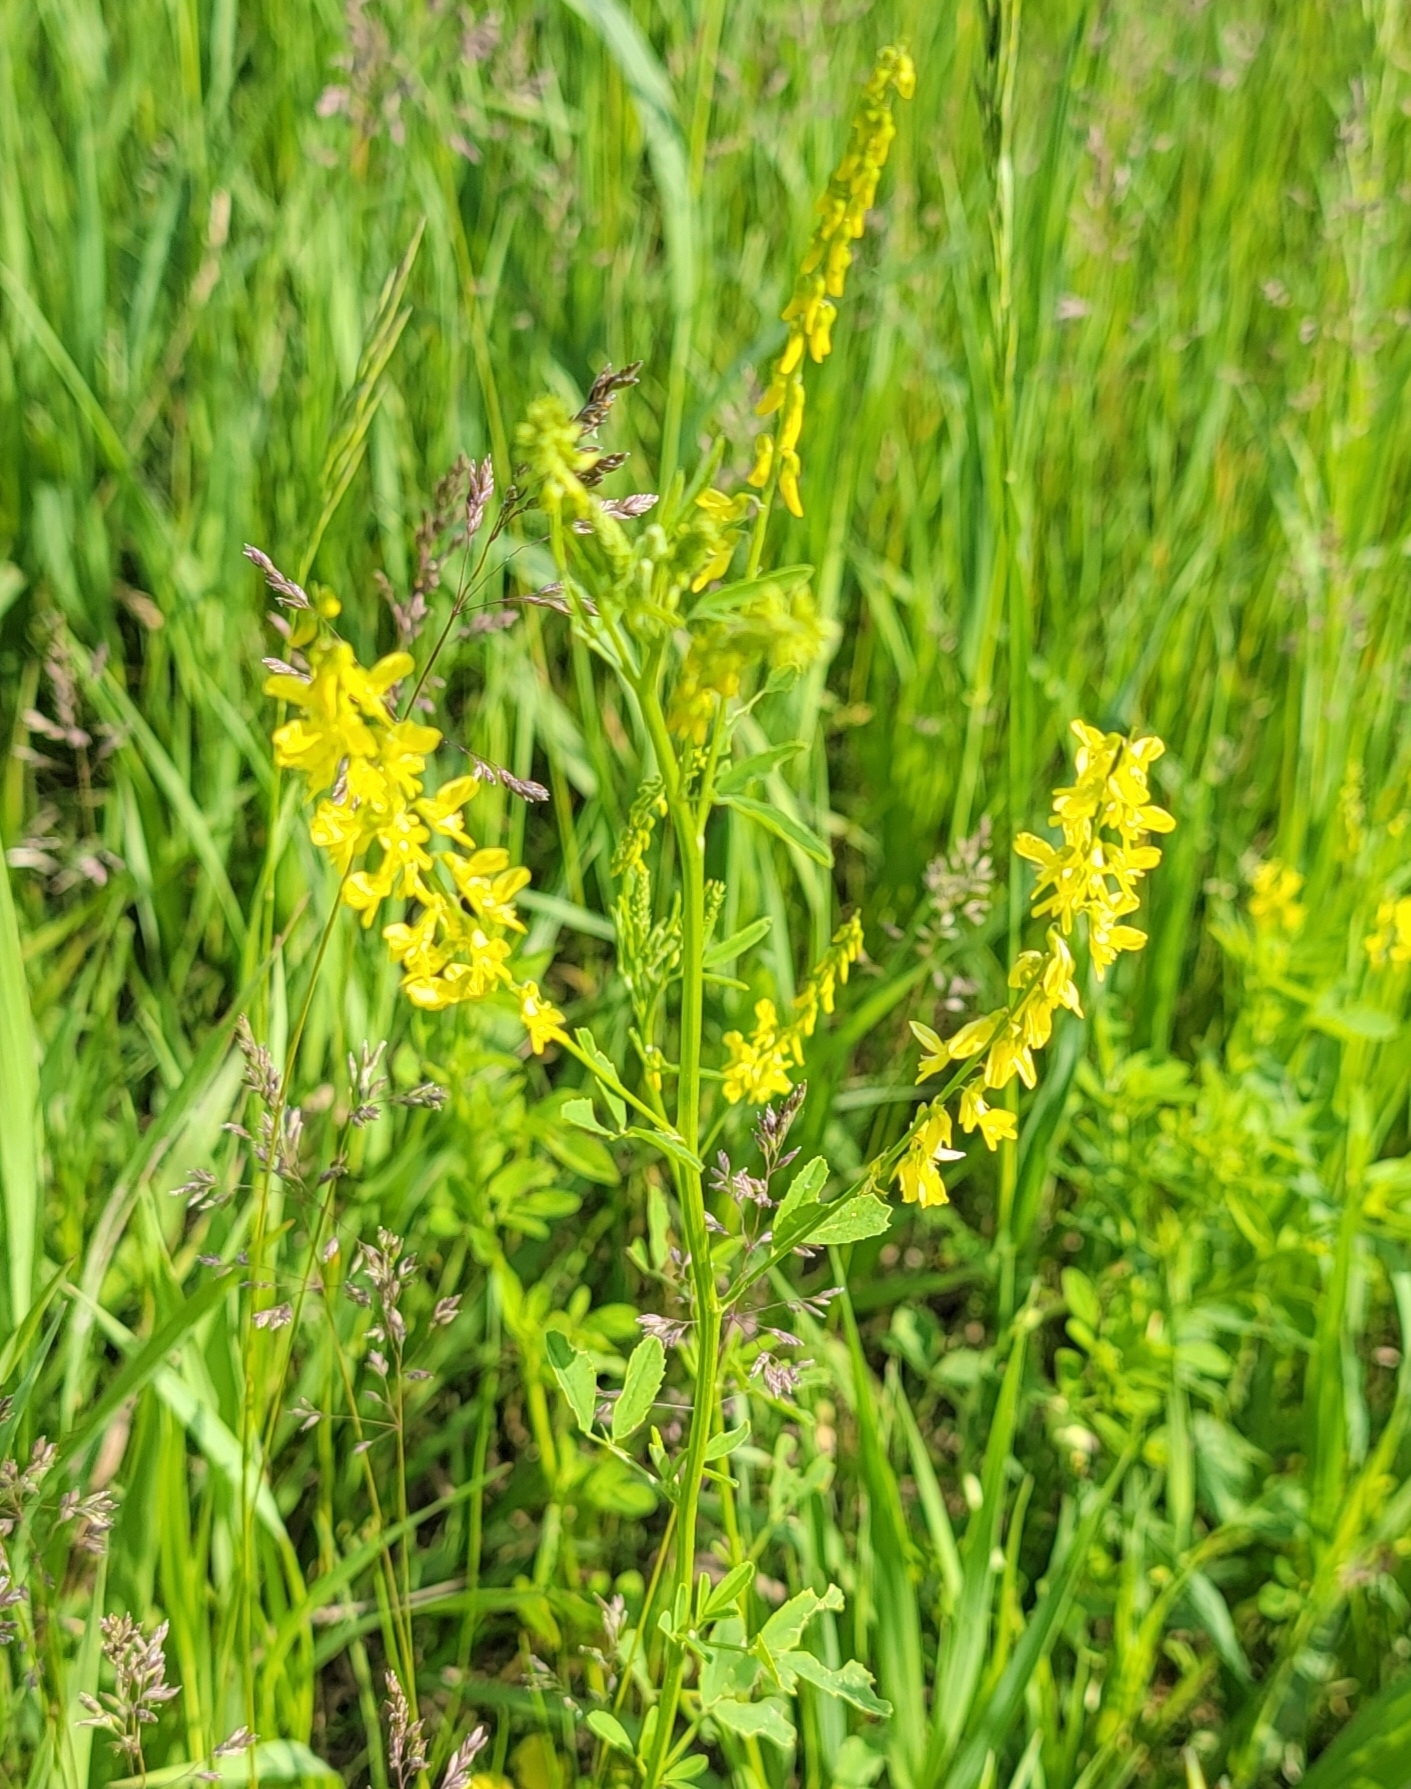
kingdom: Plantae
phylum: Tracheophyta
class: Magnoliopsida
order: Fabales
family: Fabaceae
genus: Melilotus
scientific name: Melilotus officinalis
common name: Sweetclover
